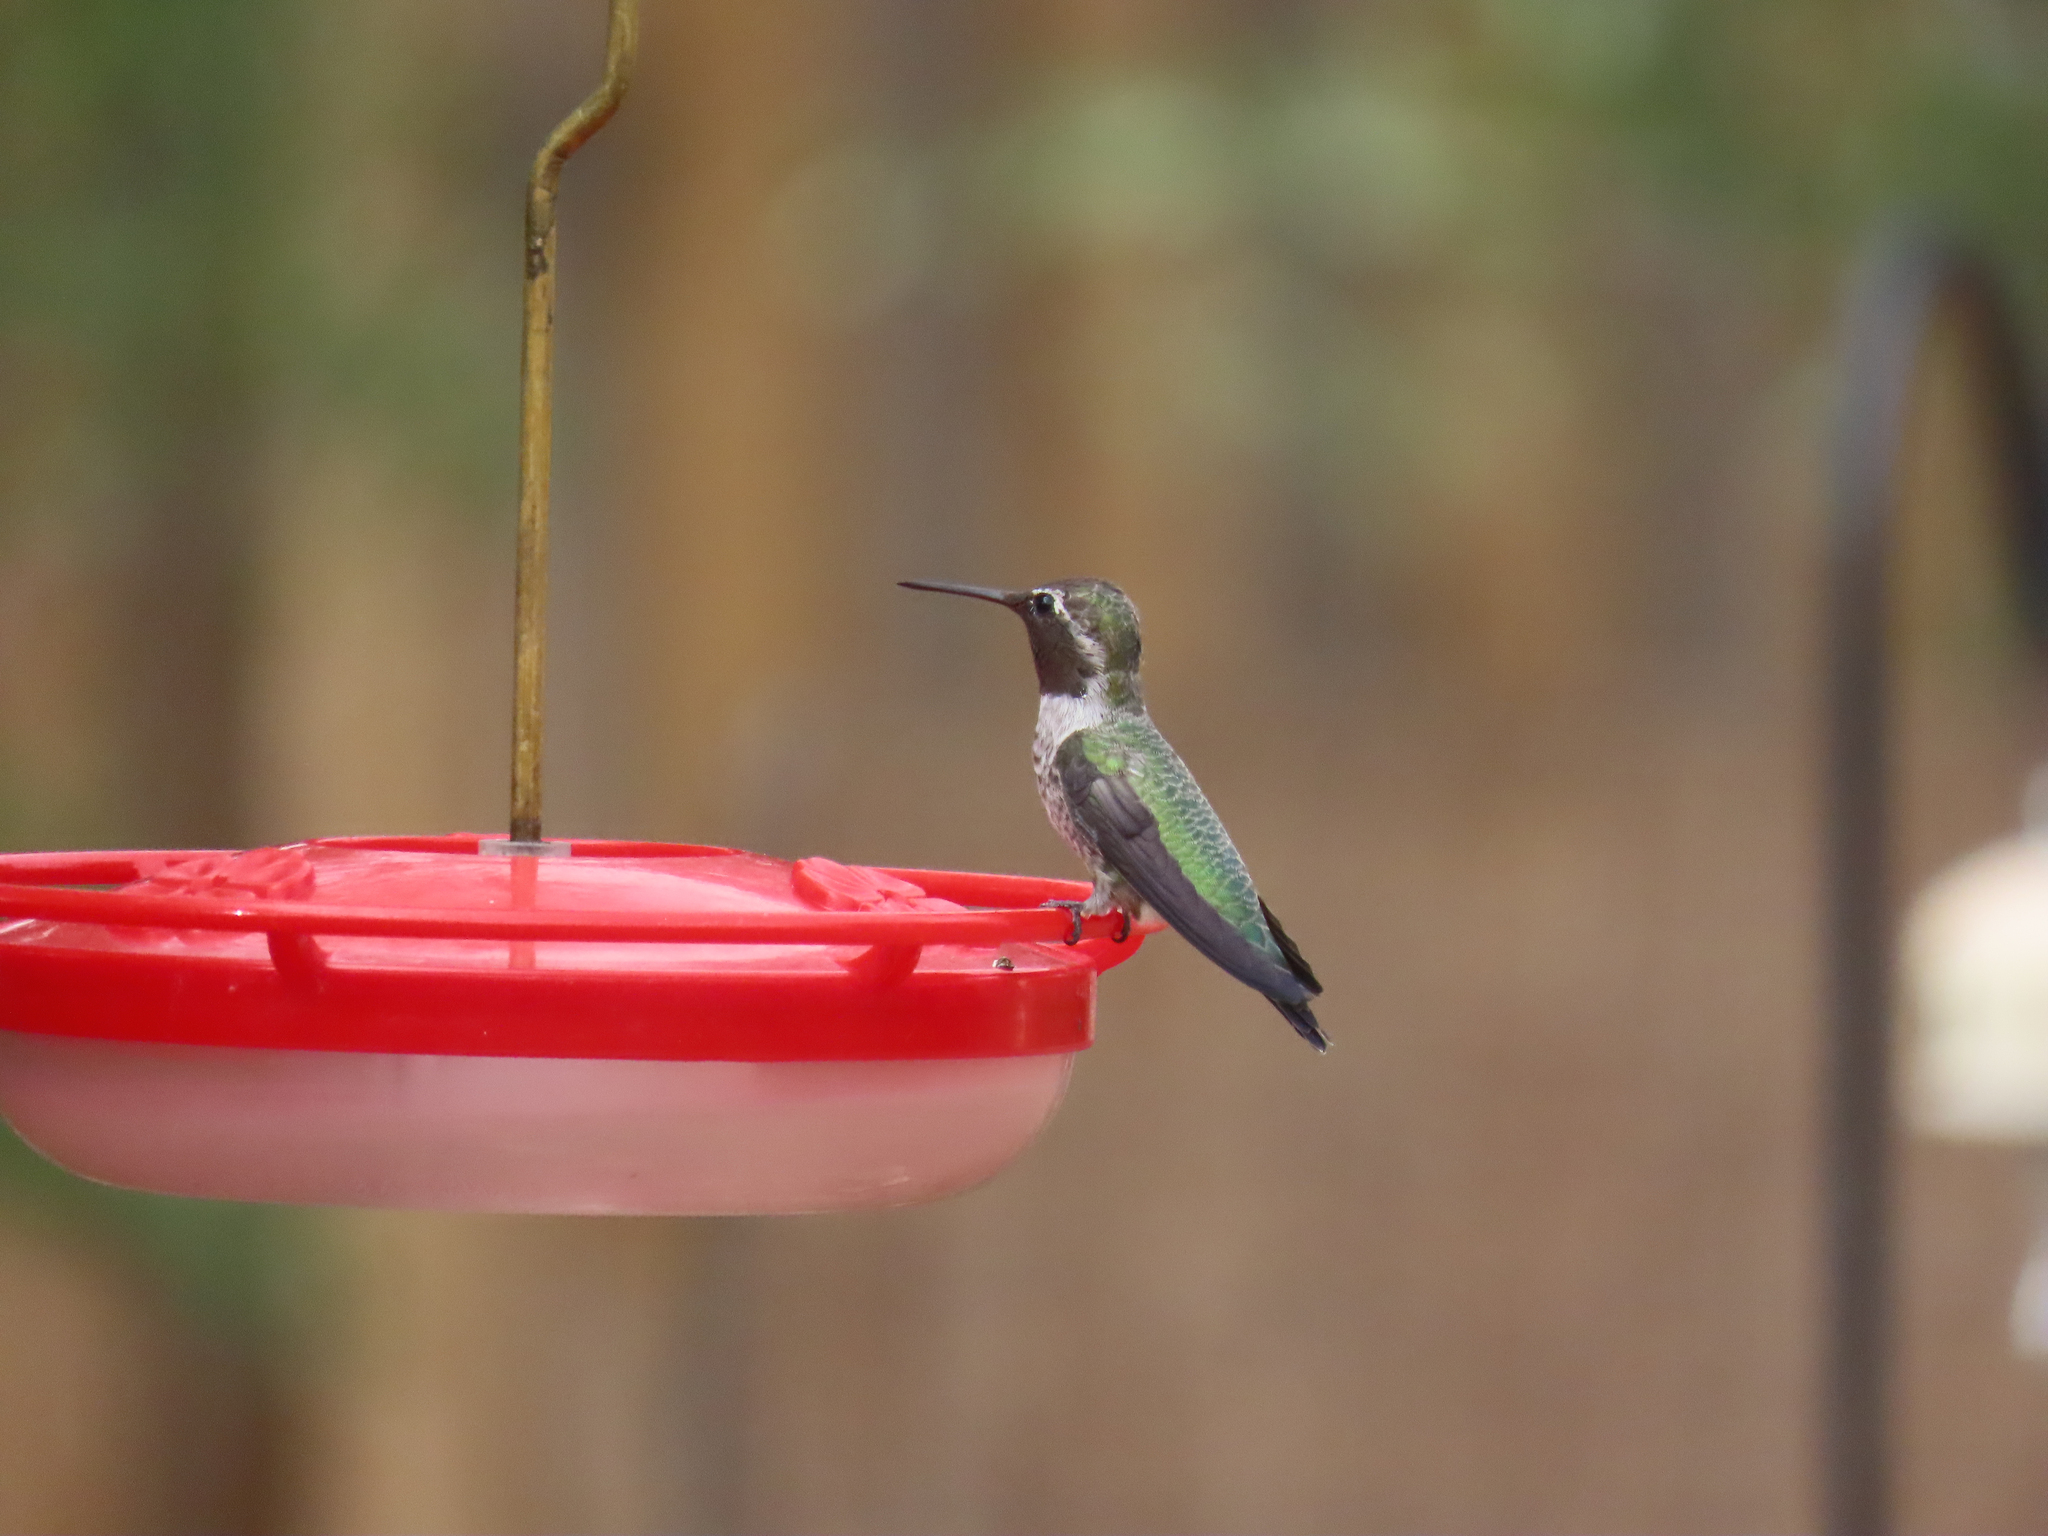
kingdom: Animalia
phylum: Chordata
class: Aves
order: Apodiformes
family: Trochilidae
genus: Calypte
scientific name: Calypte anna
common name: Anna's hummingbird
